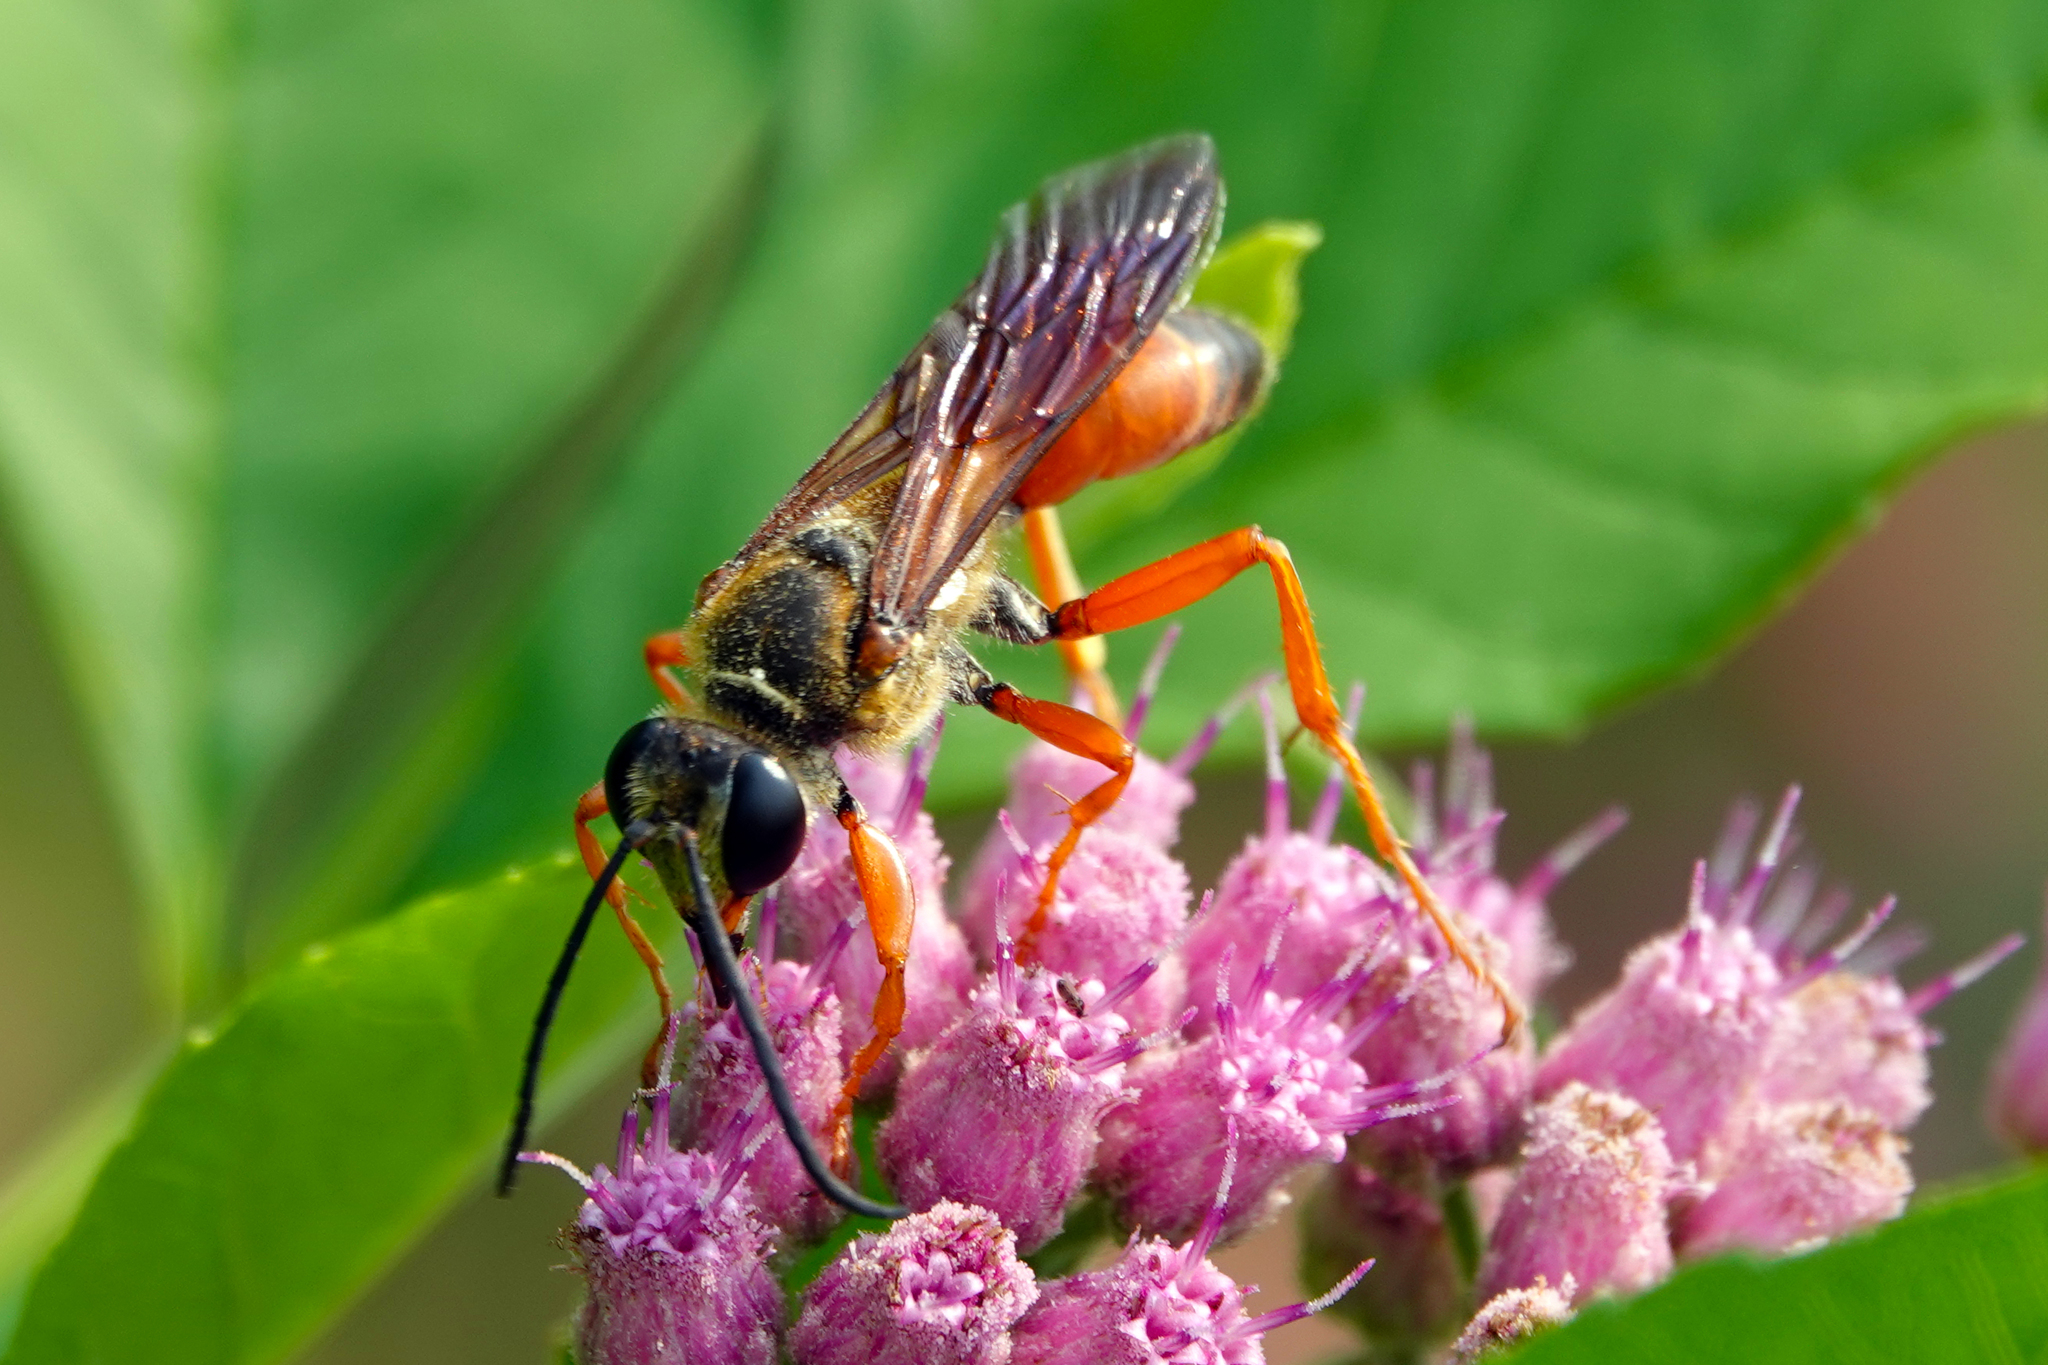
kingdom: Animalia
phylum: Arthropoda
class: Insecta
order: Hymenoptera
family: Sphecidae
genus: Sphex
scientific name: Sphex ichneumoneus
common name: Great golden digger wasp
